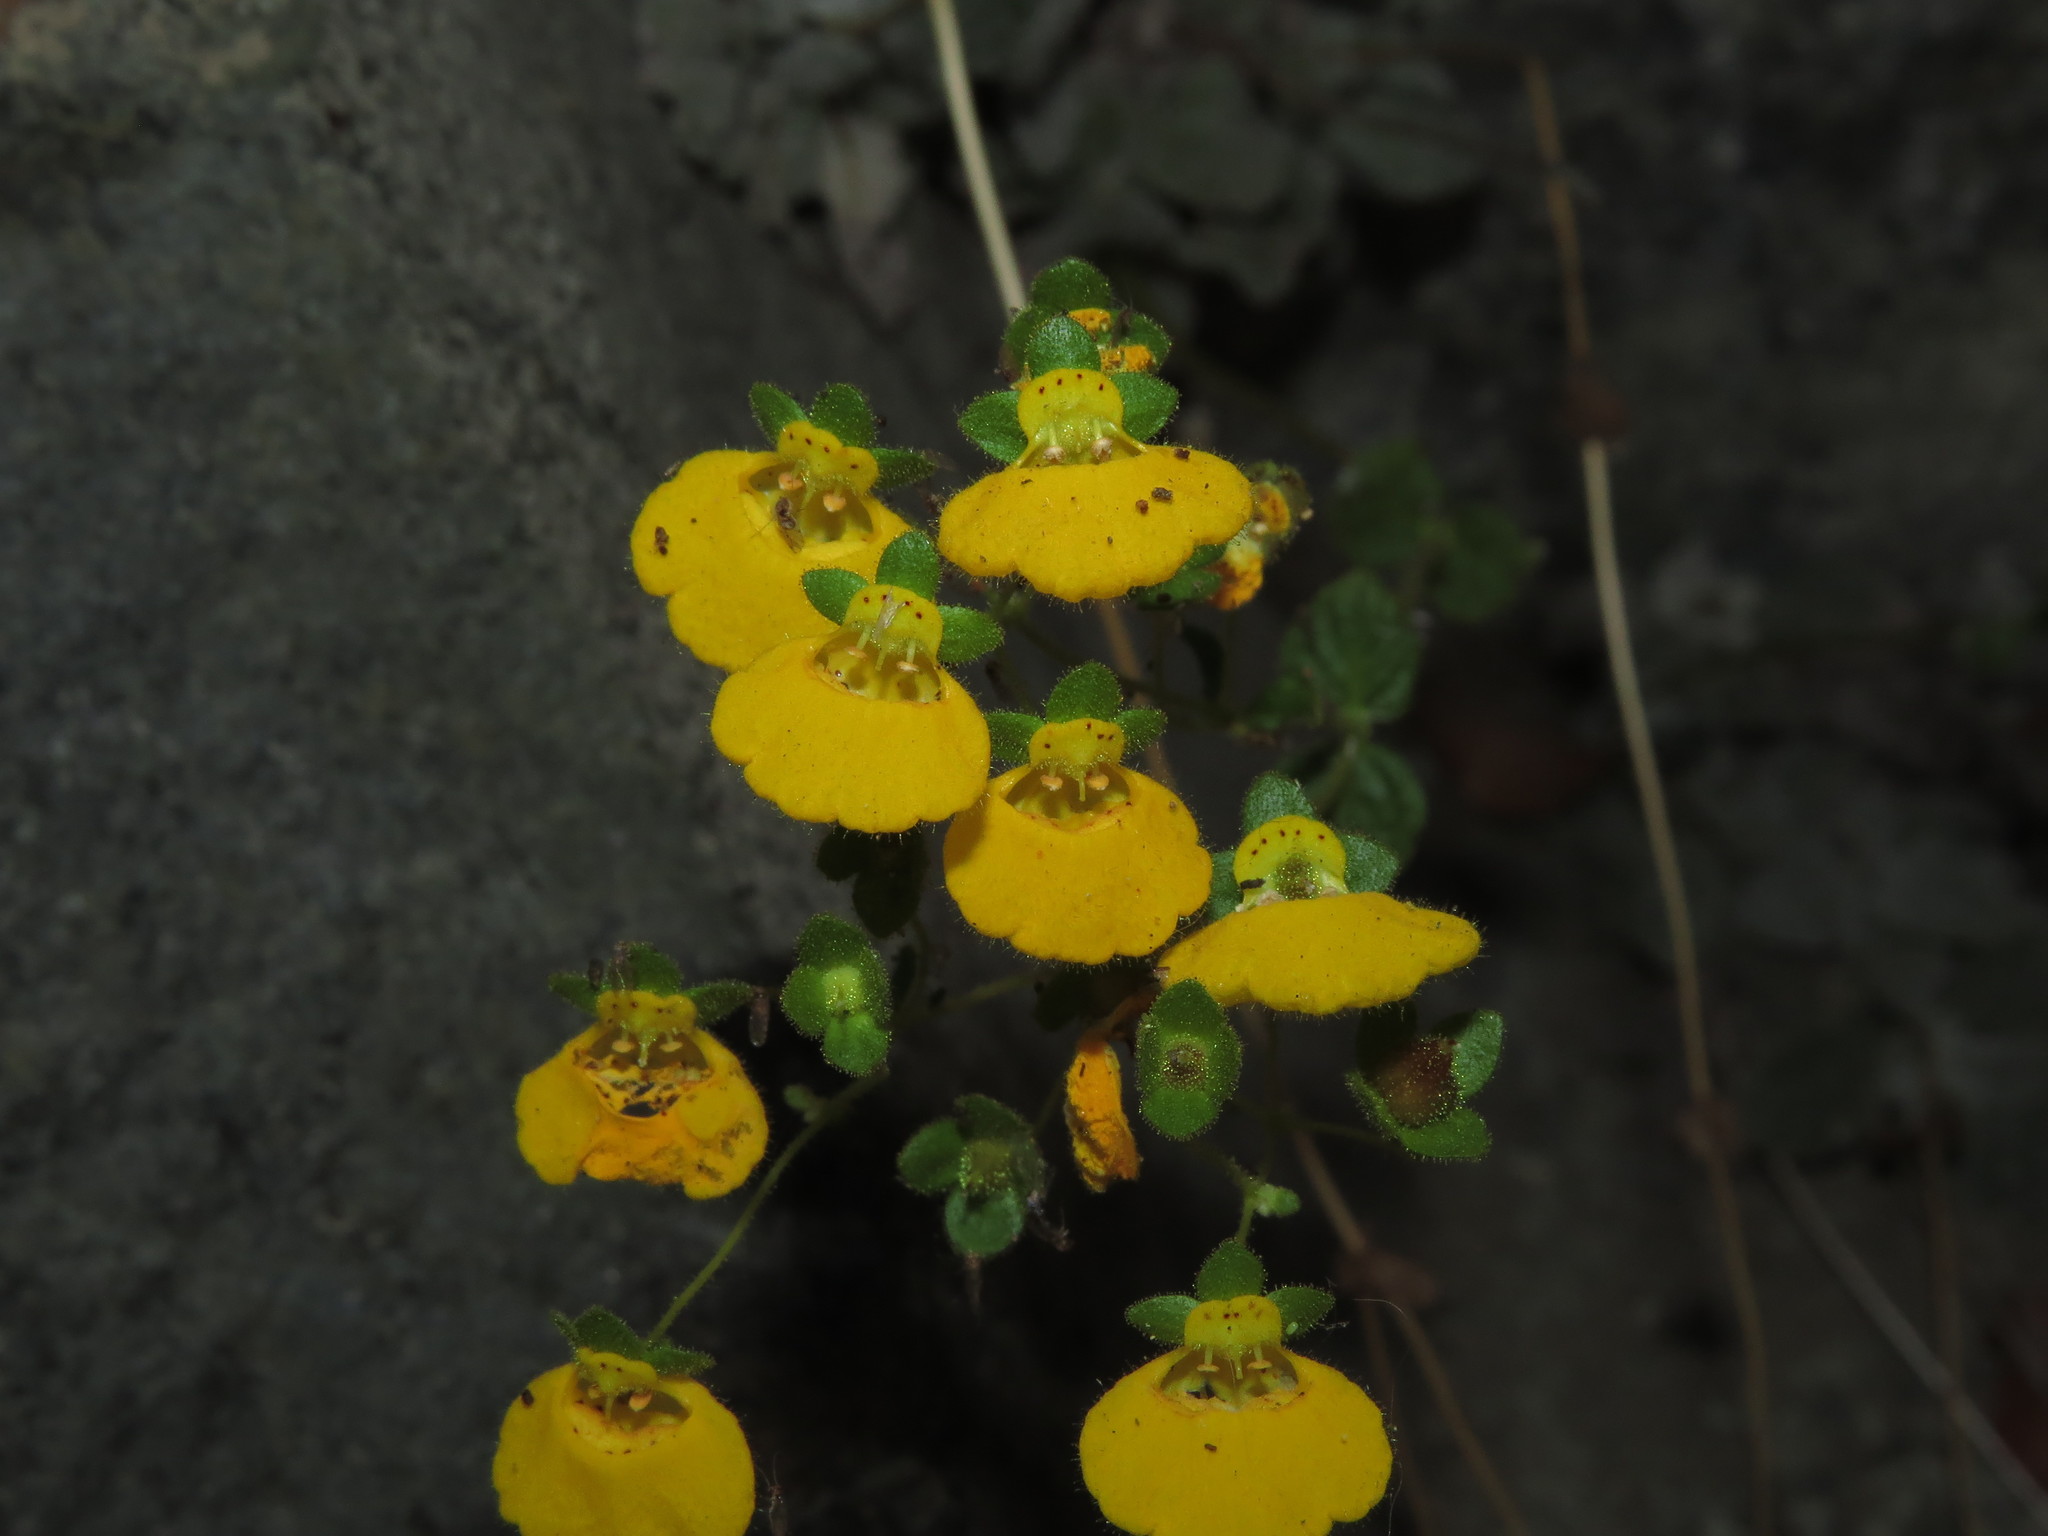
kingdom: Plantae
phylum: Tracheophyta
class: Magnoliopsida
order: Lamiales
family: Calceolariaceae
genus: Calceolaria
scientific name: Calceolaria campanae
